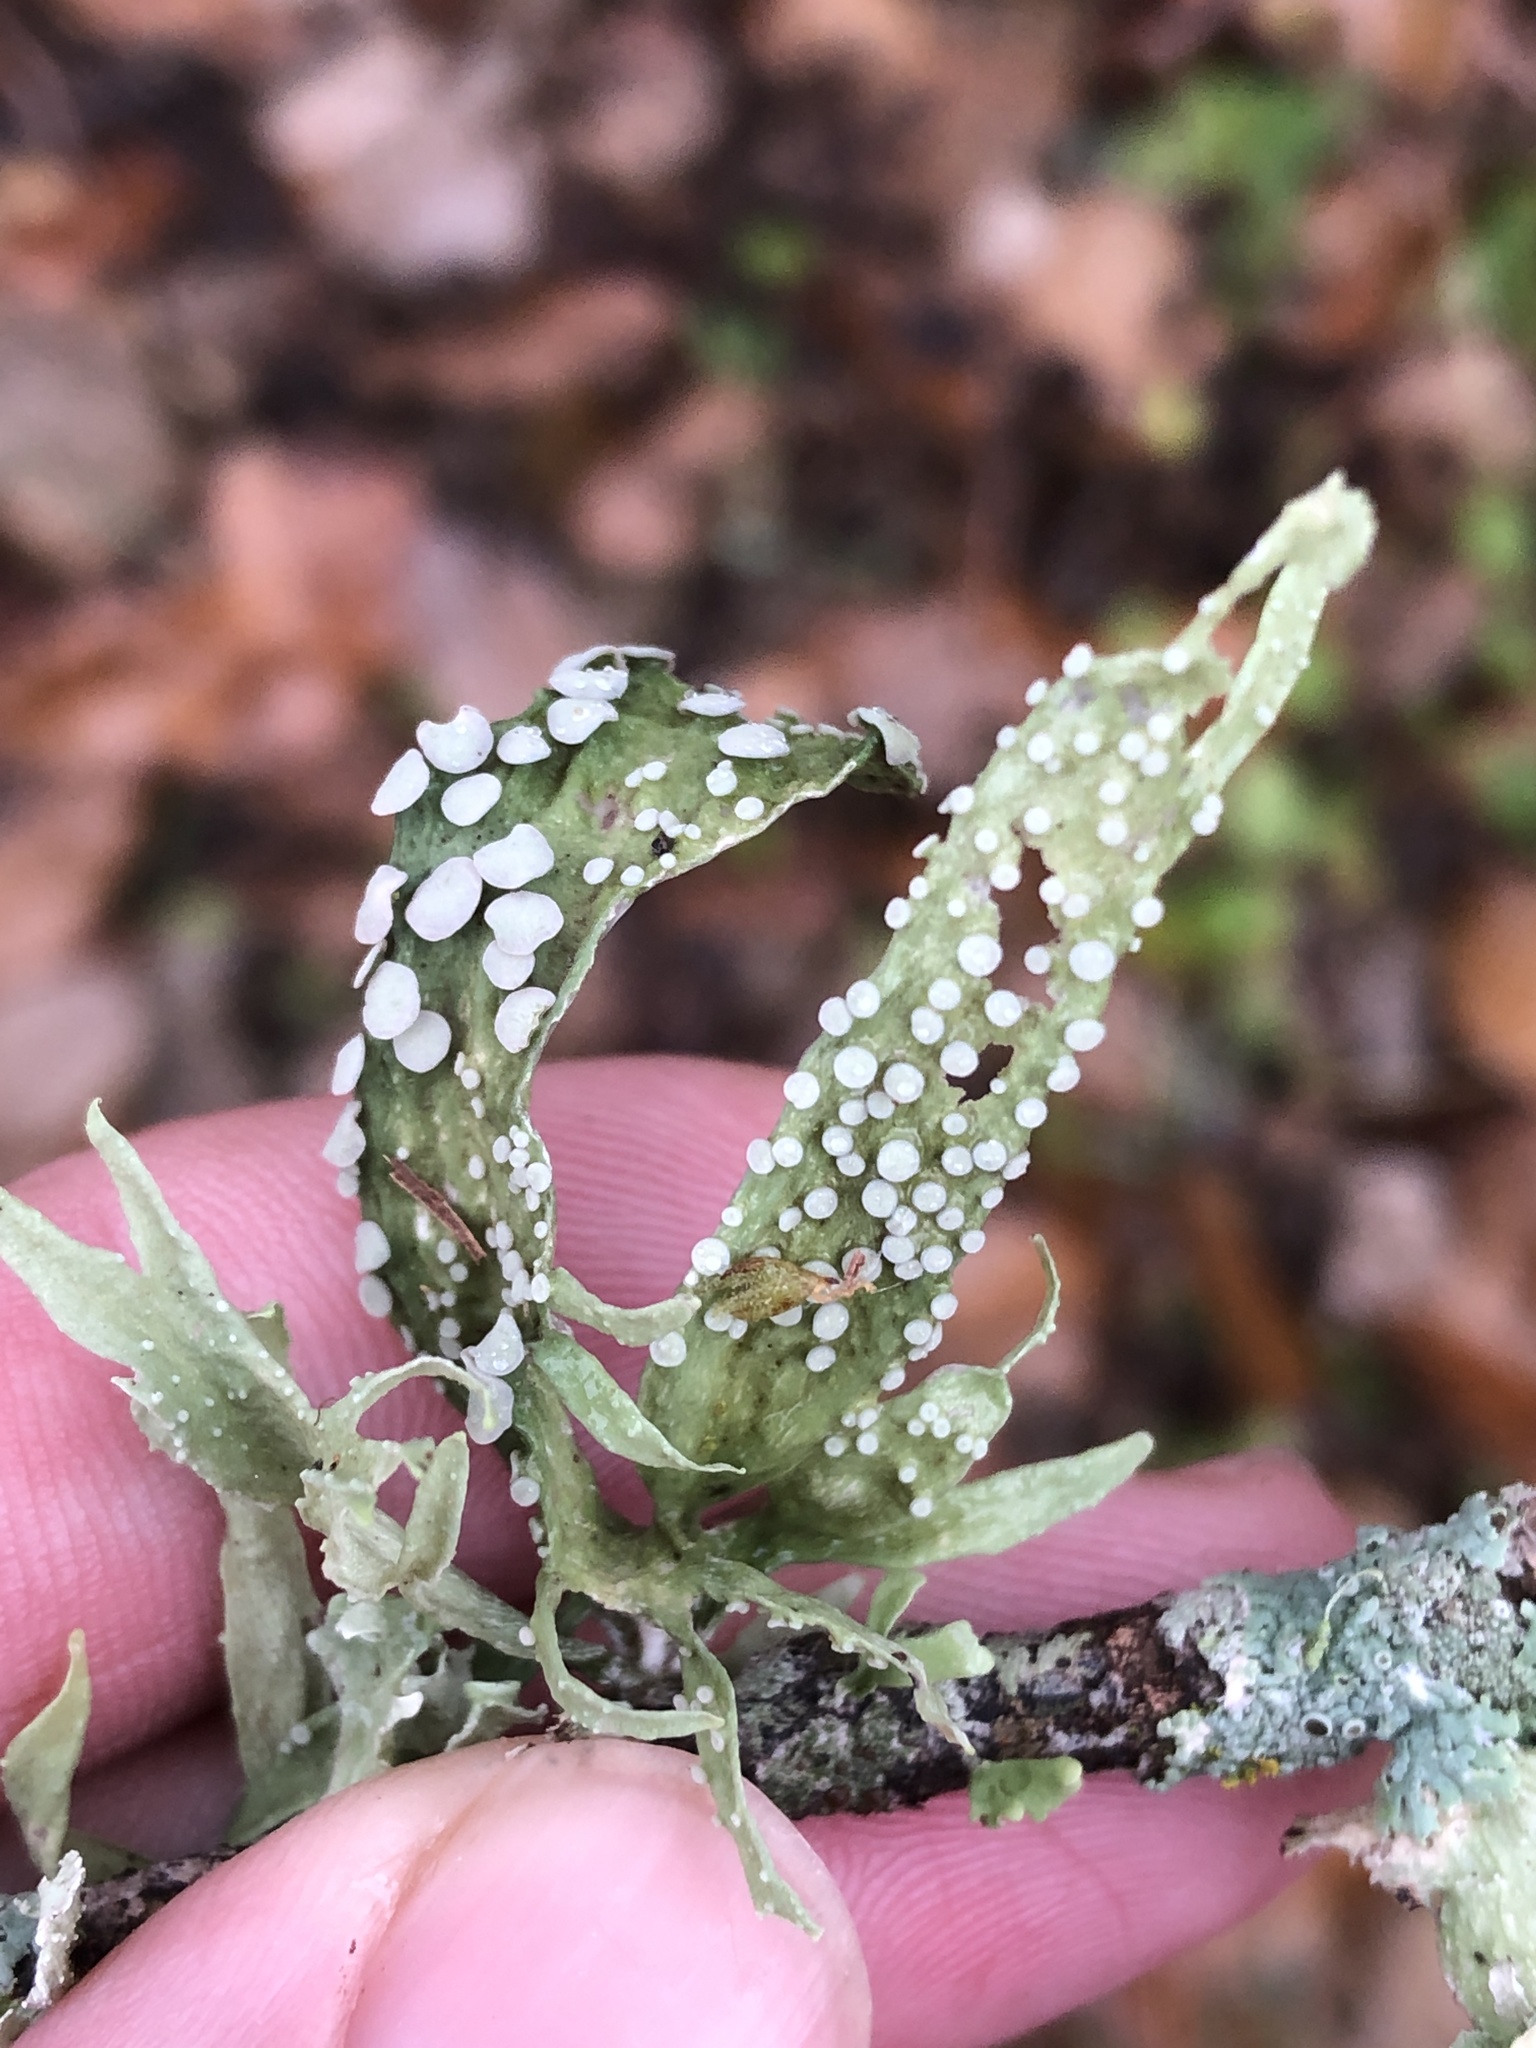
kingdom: Fungi
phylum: Ascomycota
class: Lecanoromycetes
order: Lecanorales
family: Ramalinaceae
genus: Ramalina
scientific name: Ramalina celastri
